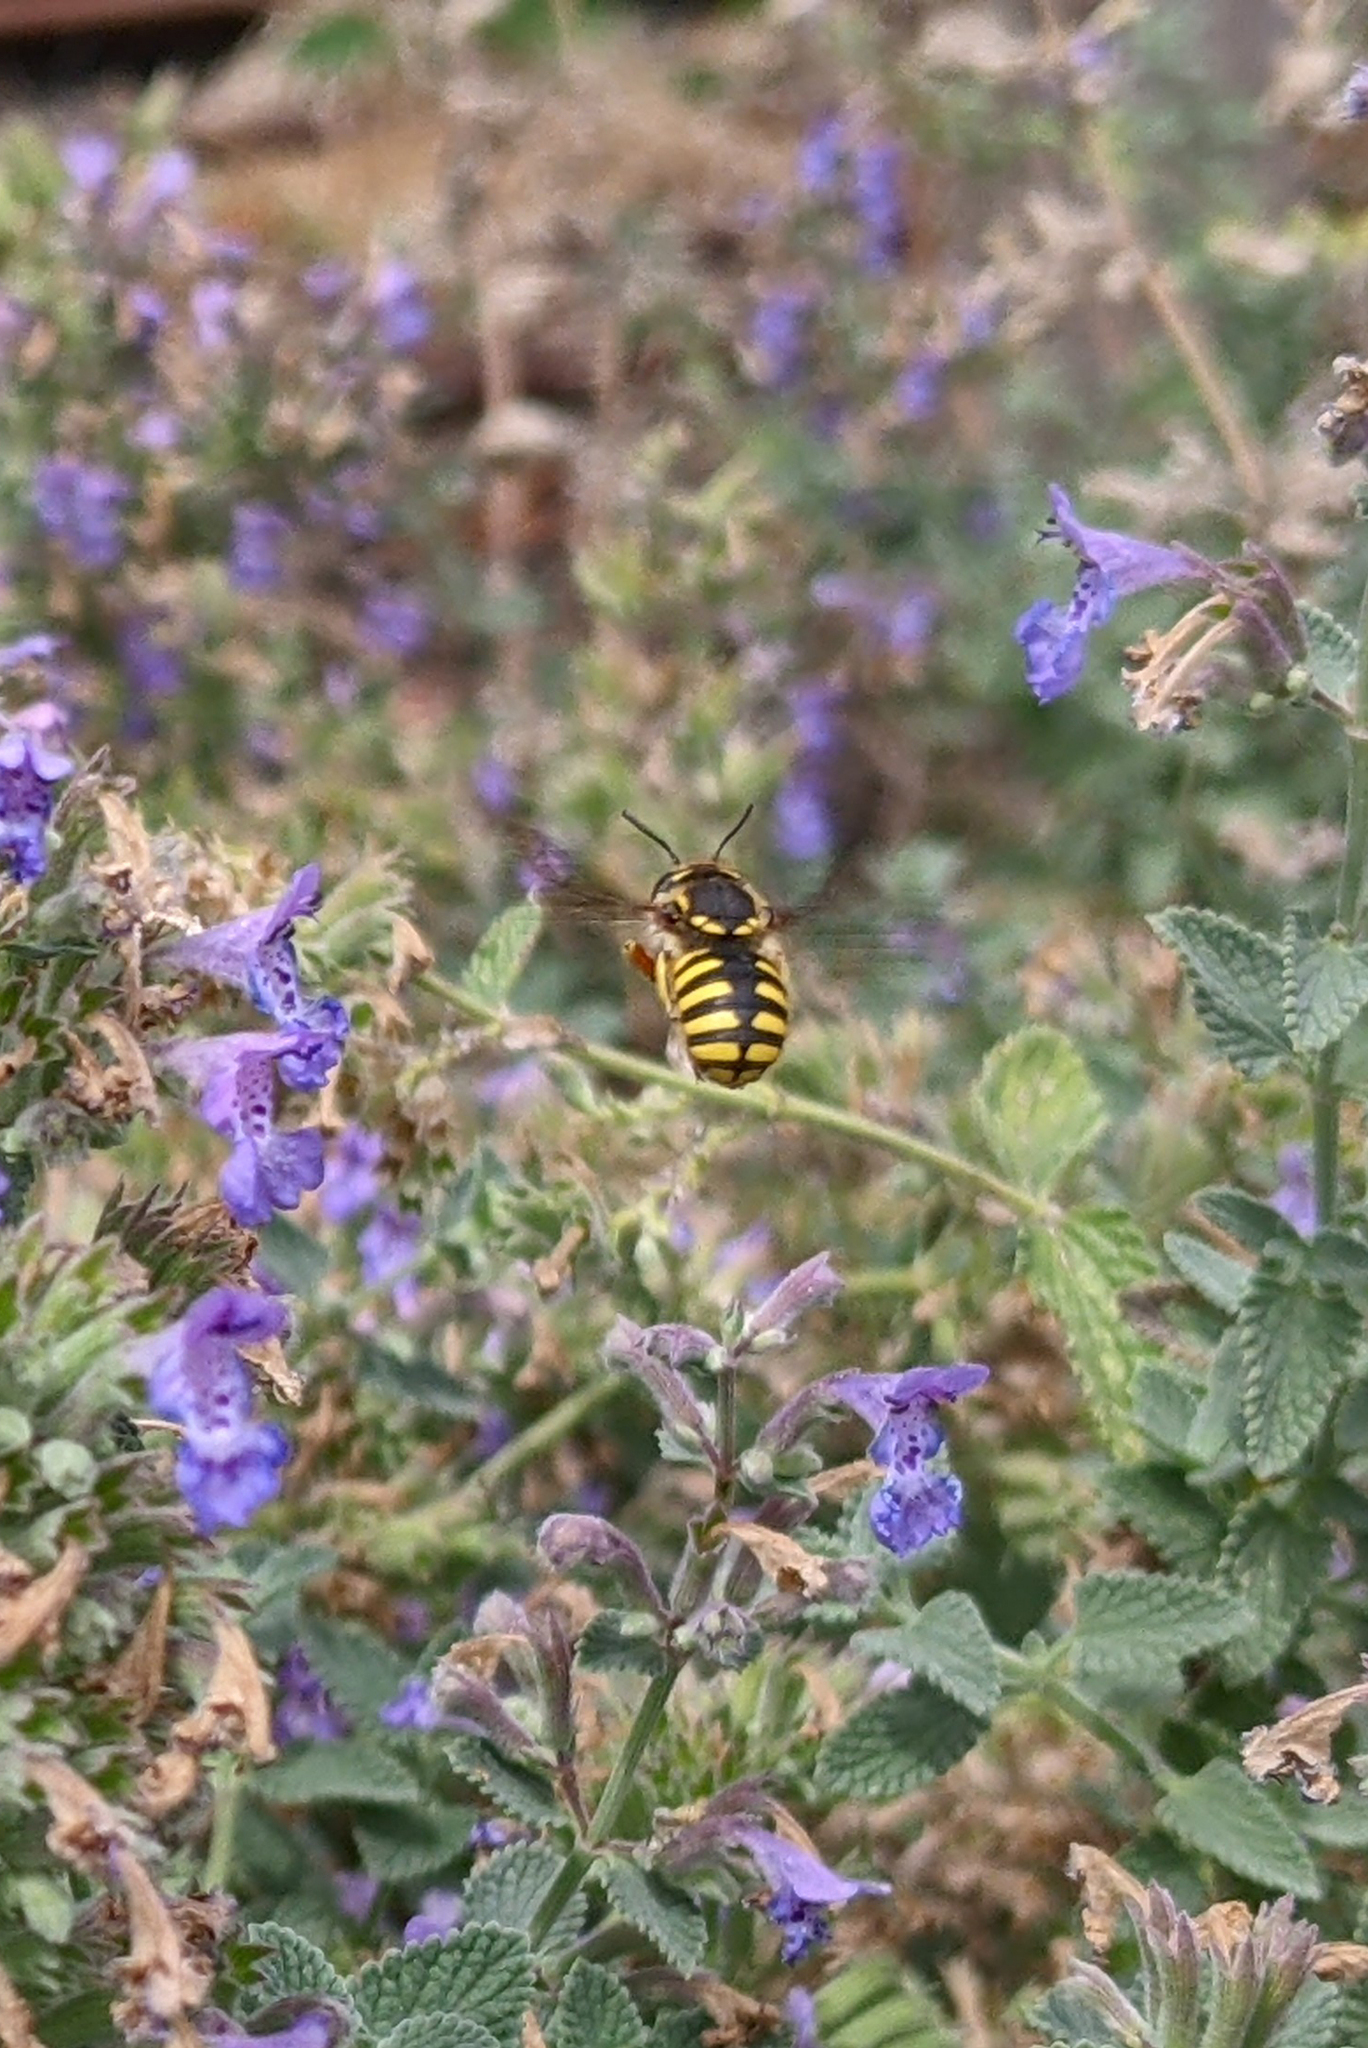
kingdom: Animalia
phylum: Arthropoda
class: Insecta
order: Hymenoptera
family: Megachilidae
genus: Anthidium
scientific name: Anthidium manicatum
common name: Wool carder bee
